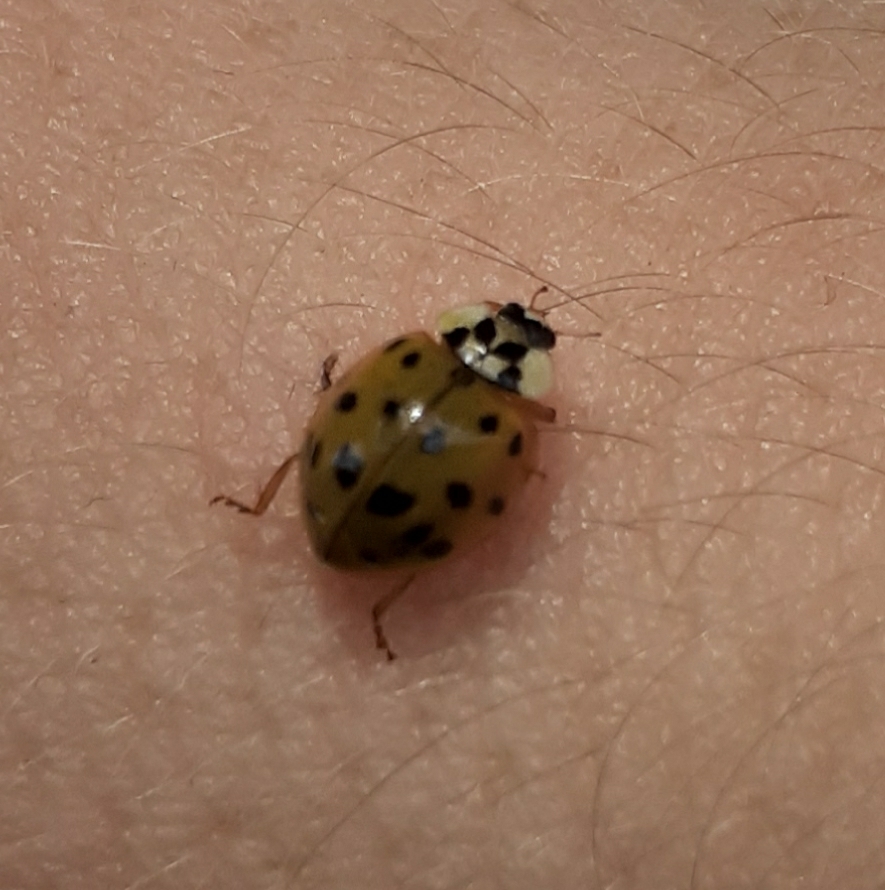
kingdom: Animalia
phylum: Arthropoda
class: Insecta
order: Coleoptera
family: Coccinellidae
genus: Harmonia
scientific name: Harmonia axyridis
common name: Harlequin ladybird
